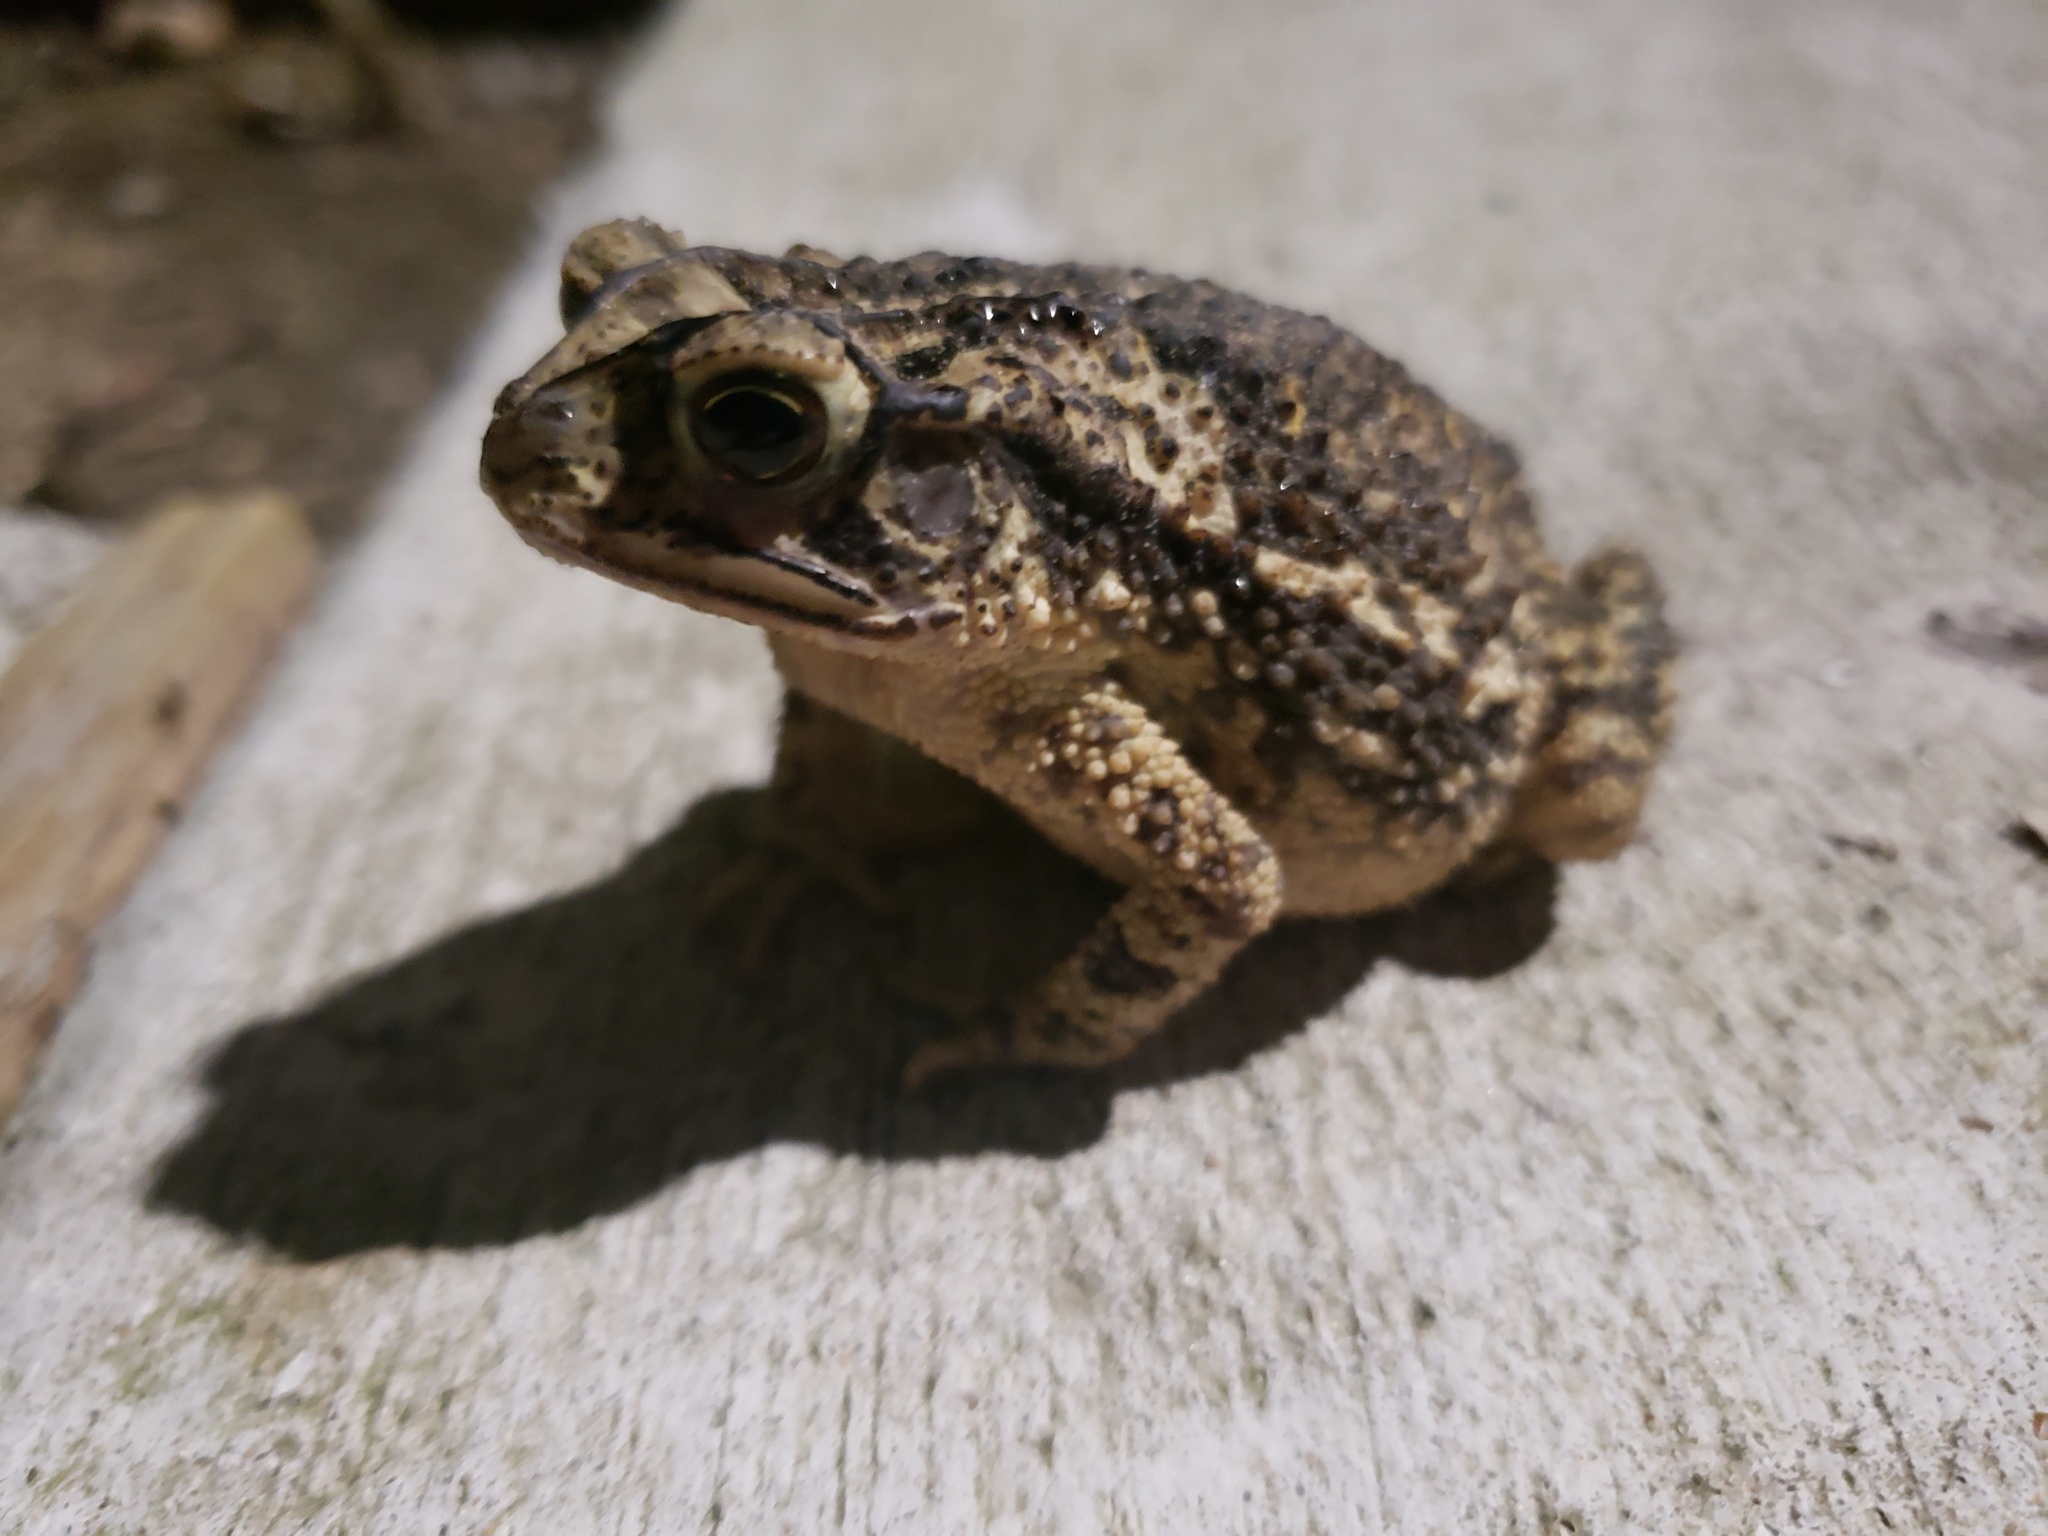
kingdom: Animalia
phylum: Chordata
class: Amphibia
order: Anura
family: Bufonidae
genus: Incilius
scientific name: Incilius nebulifer
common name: Gulf coast toad
